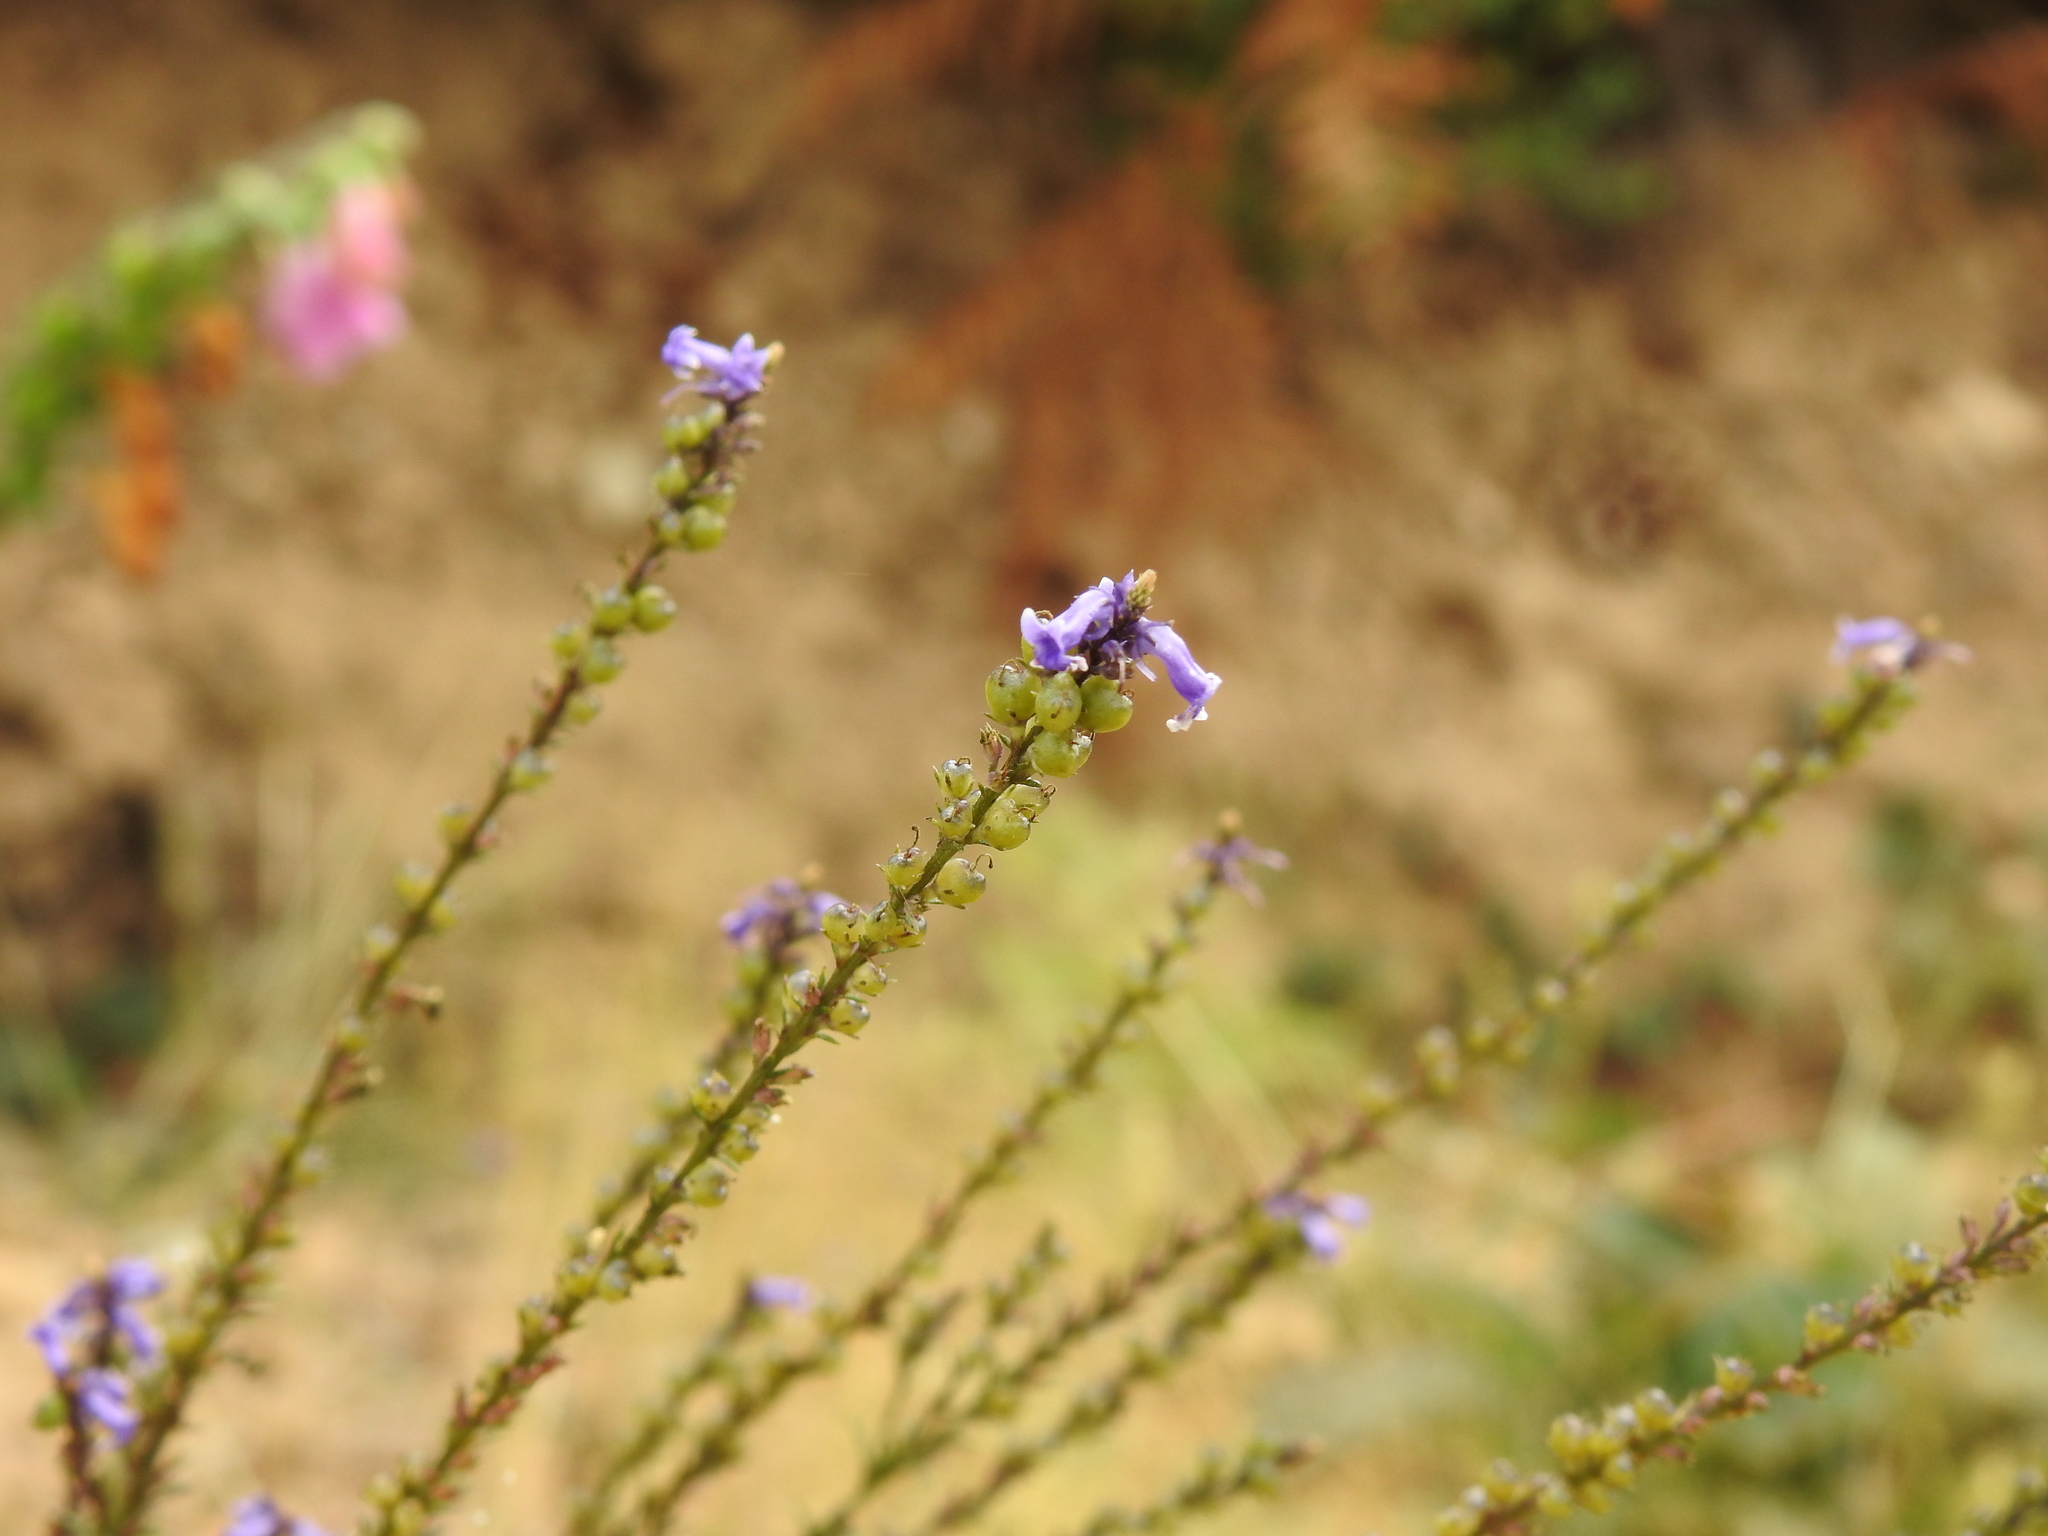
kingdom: Plantae
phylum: Tracheophyta
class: Magnoliopsida
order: Lamiales
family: Plantaginaceae
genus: Anarrhinum
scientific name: Anarrhinum bellidifolium
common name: Daisy-leaved toadflax
